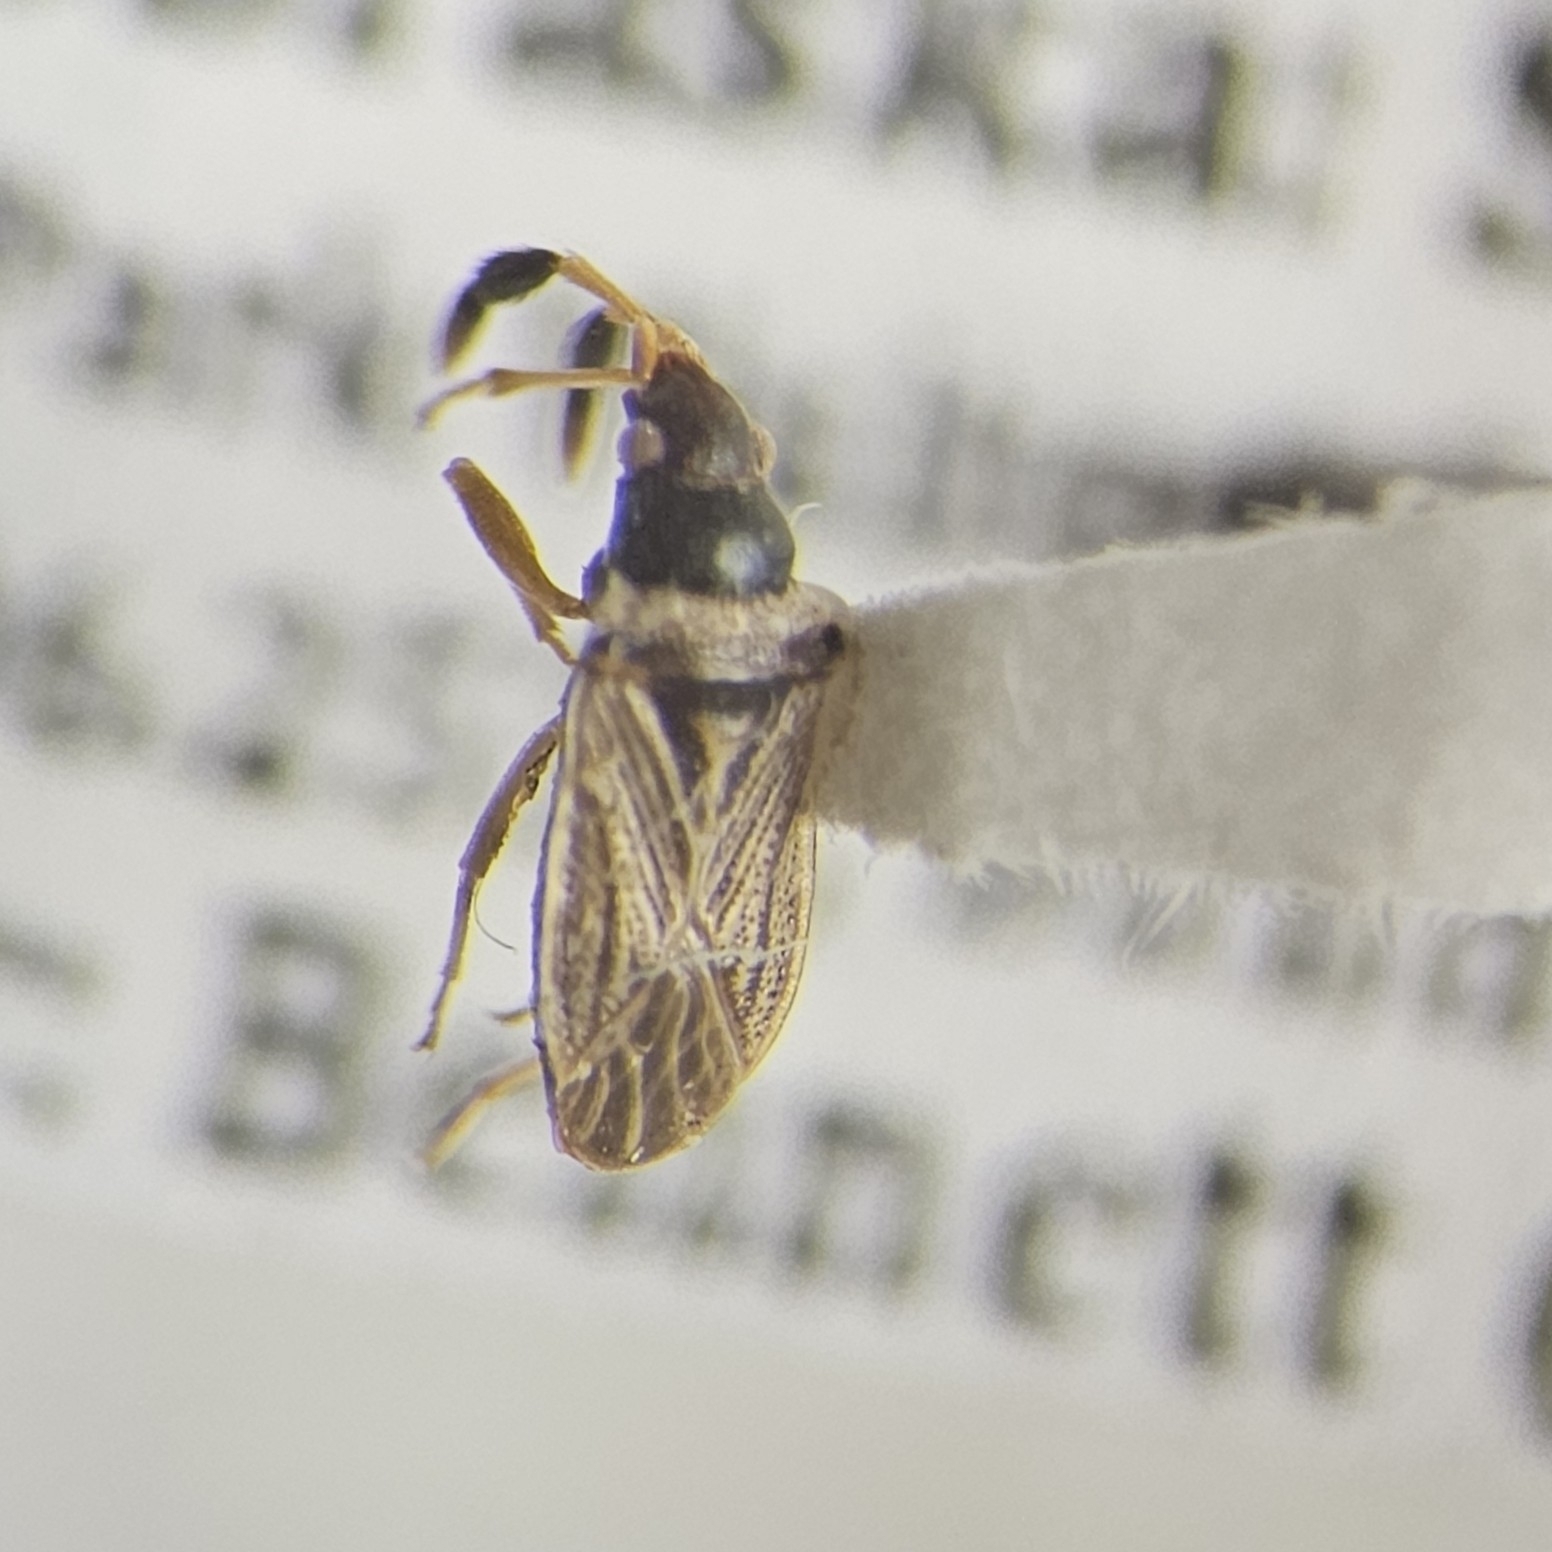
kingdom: Animalia
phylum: Arthropoda
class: Insecta
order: Hemiptera
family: Rhyparochromidae
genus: Ptochiomera
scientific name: Ptochiomera nodosa
